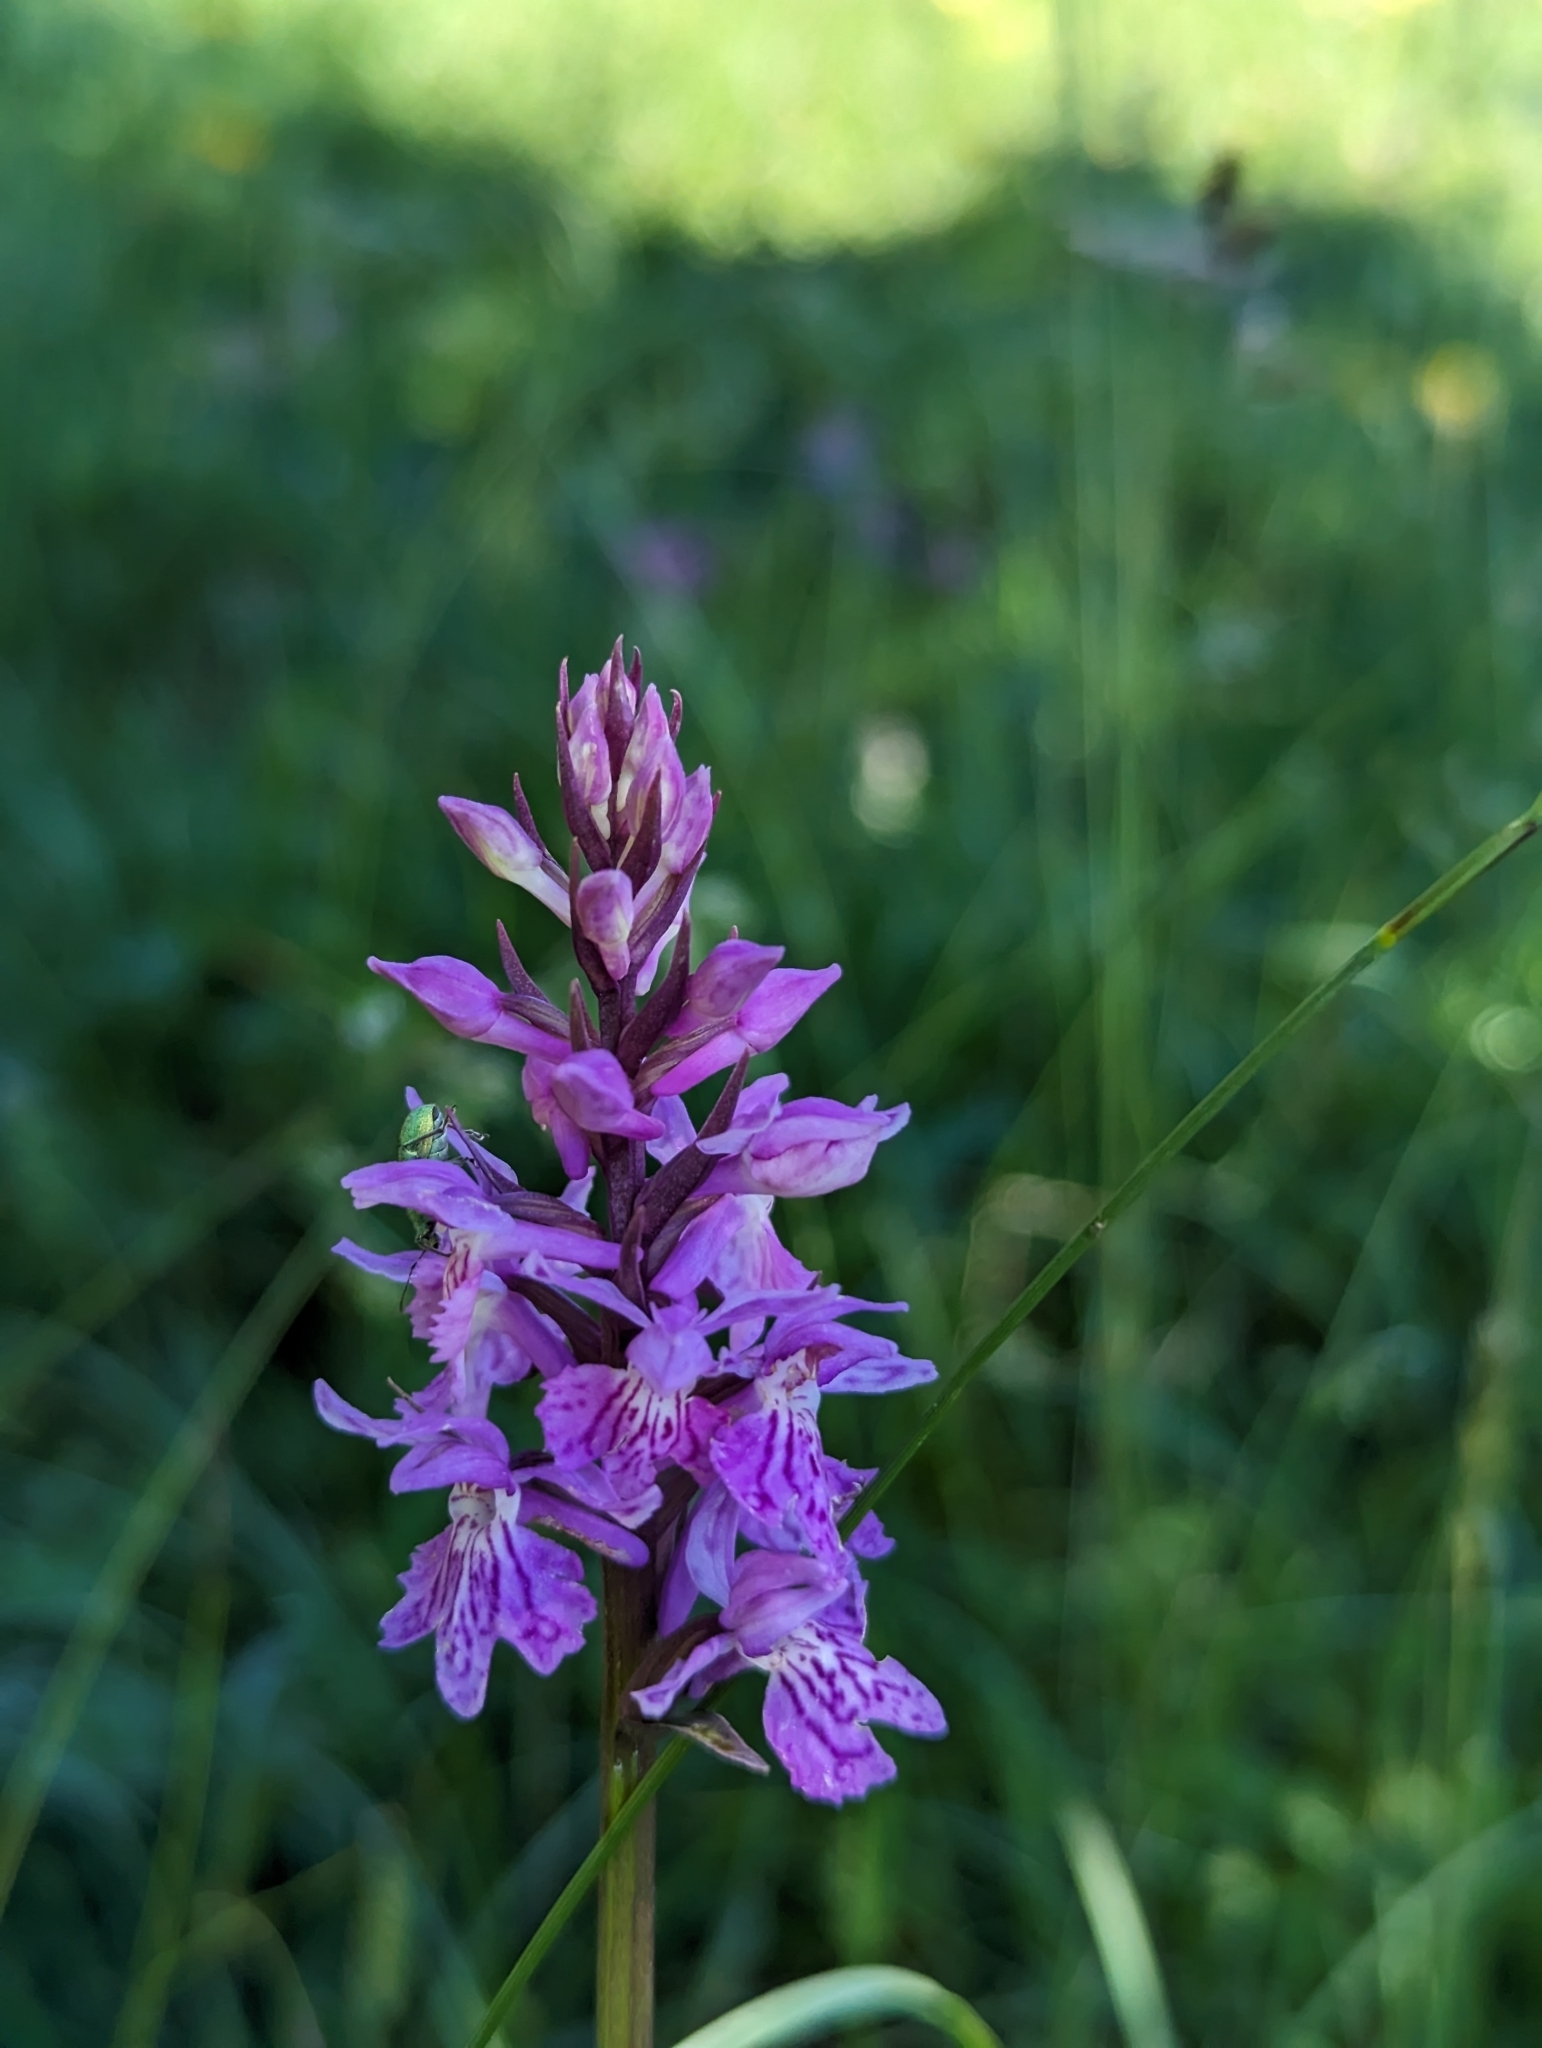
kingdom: Plantae
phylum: Tracheophyta
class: Liliopsida
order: Asparagales
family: Orchidaceae
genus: Dactylorhiza
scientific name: Dactylorhiza maculata
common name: Heath spotted-orchid
